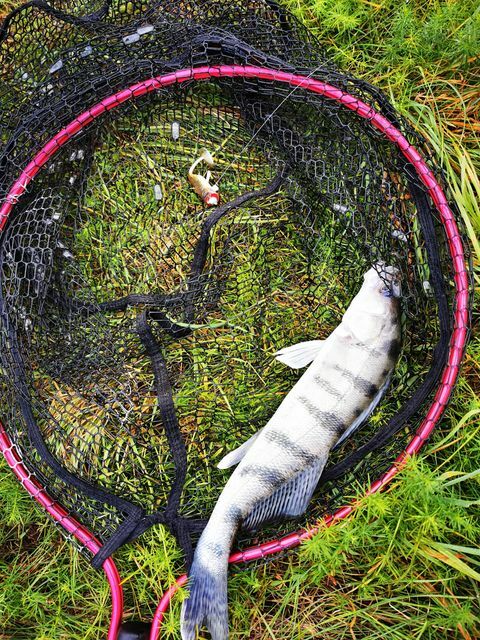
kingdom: Animalia
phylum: Chordata
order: Perciformes
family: Percidae
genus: Sander
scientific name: Sander volgensis
